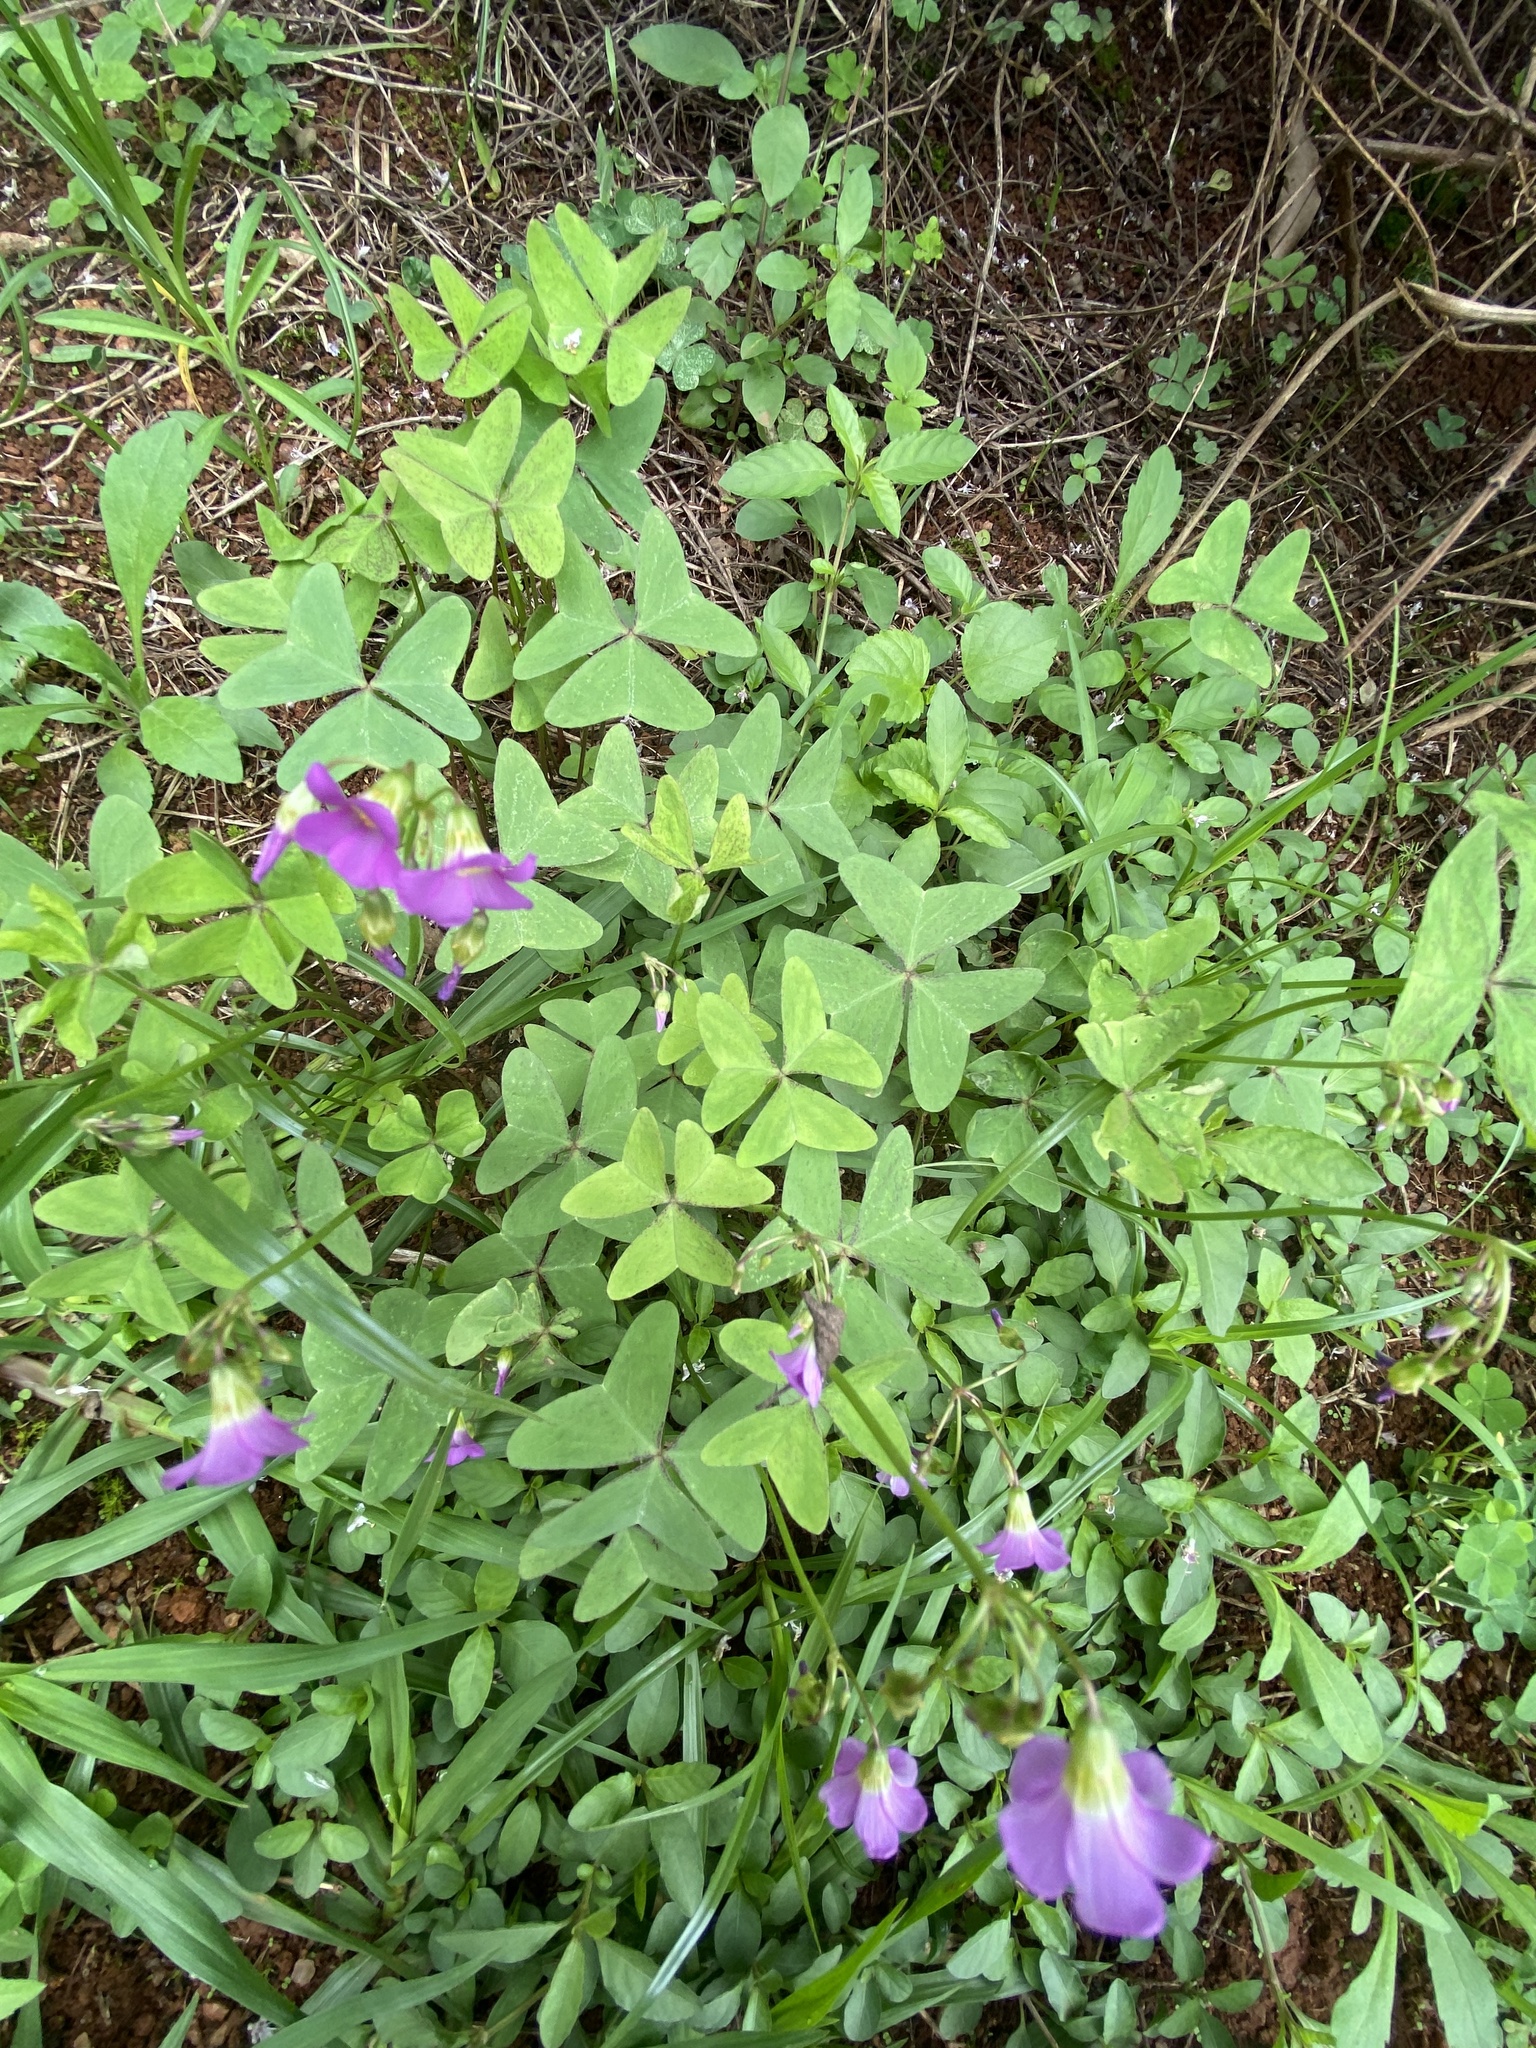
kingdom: Plantae
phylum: Tracheophyta
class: Magnoliopsida
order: Oxalidales
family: Oxalidaceae
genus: Oxalis
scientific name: Oxalis latifolia
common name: Garden pink-sorrel
